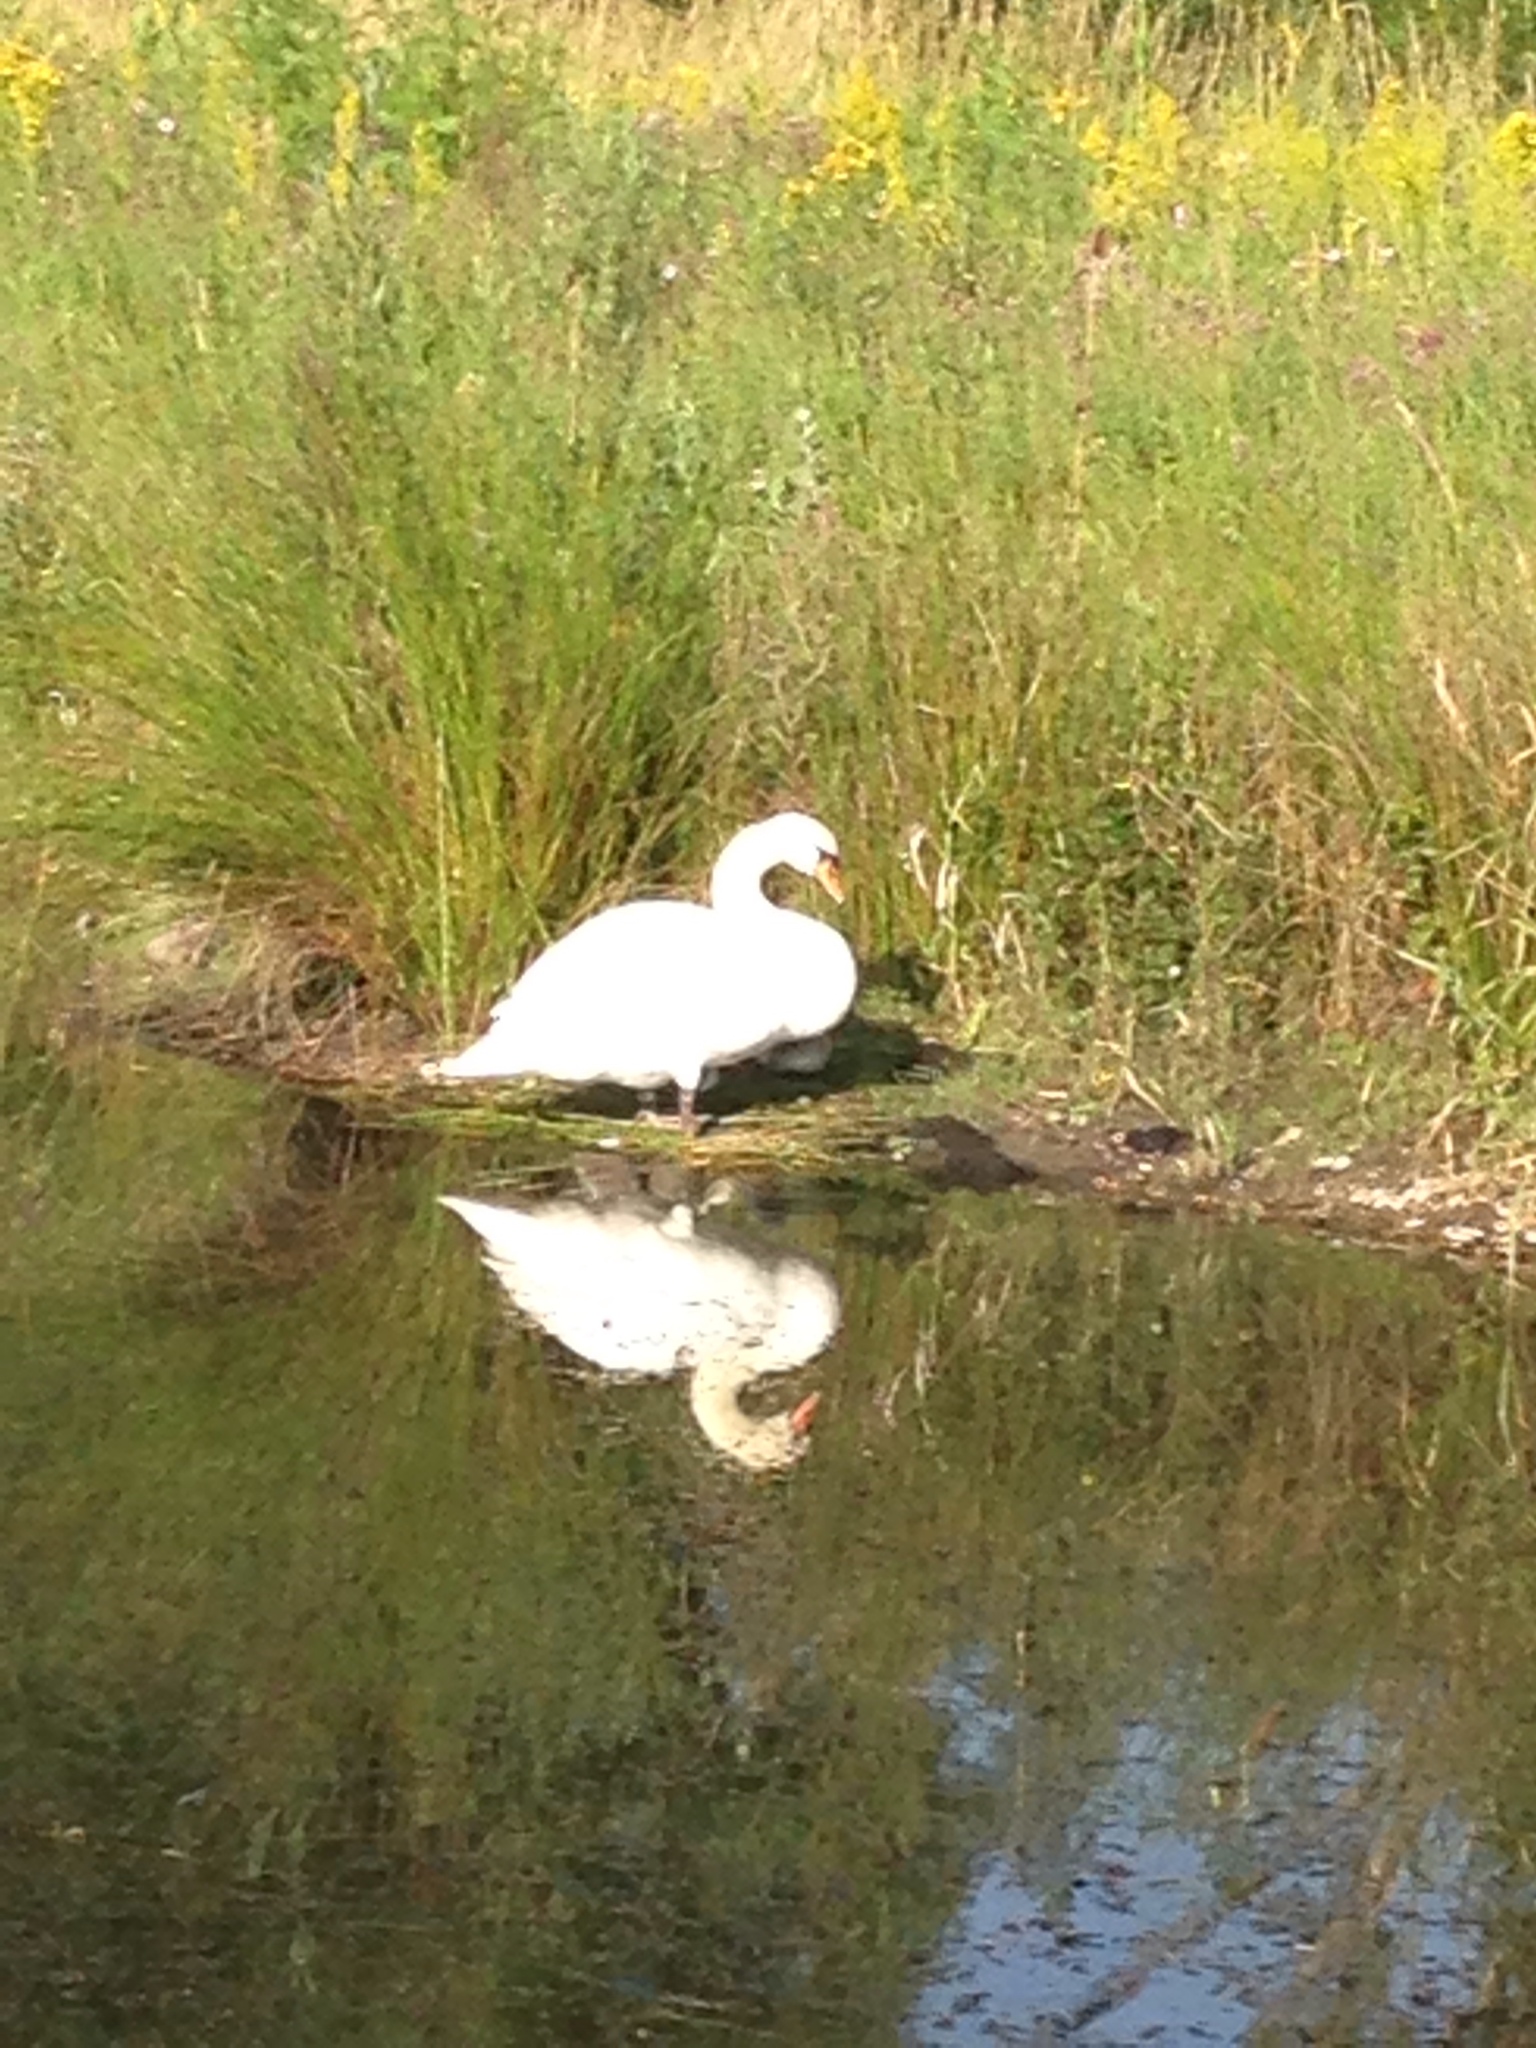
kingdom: Animalia
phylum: Chordata
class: Aves
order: Anseriformes
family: Anatidae
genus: Cygnus
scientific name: Cygnus olor
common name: Mute swan
